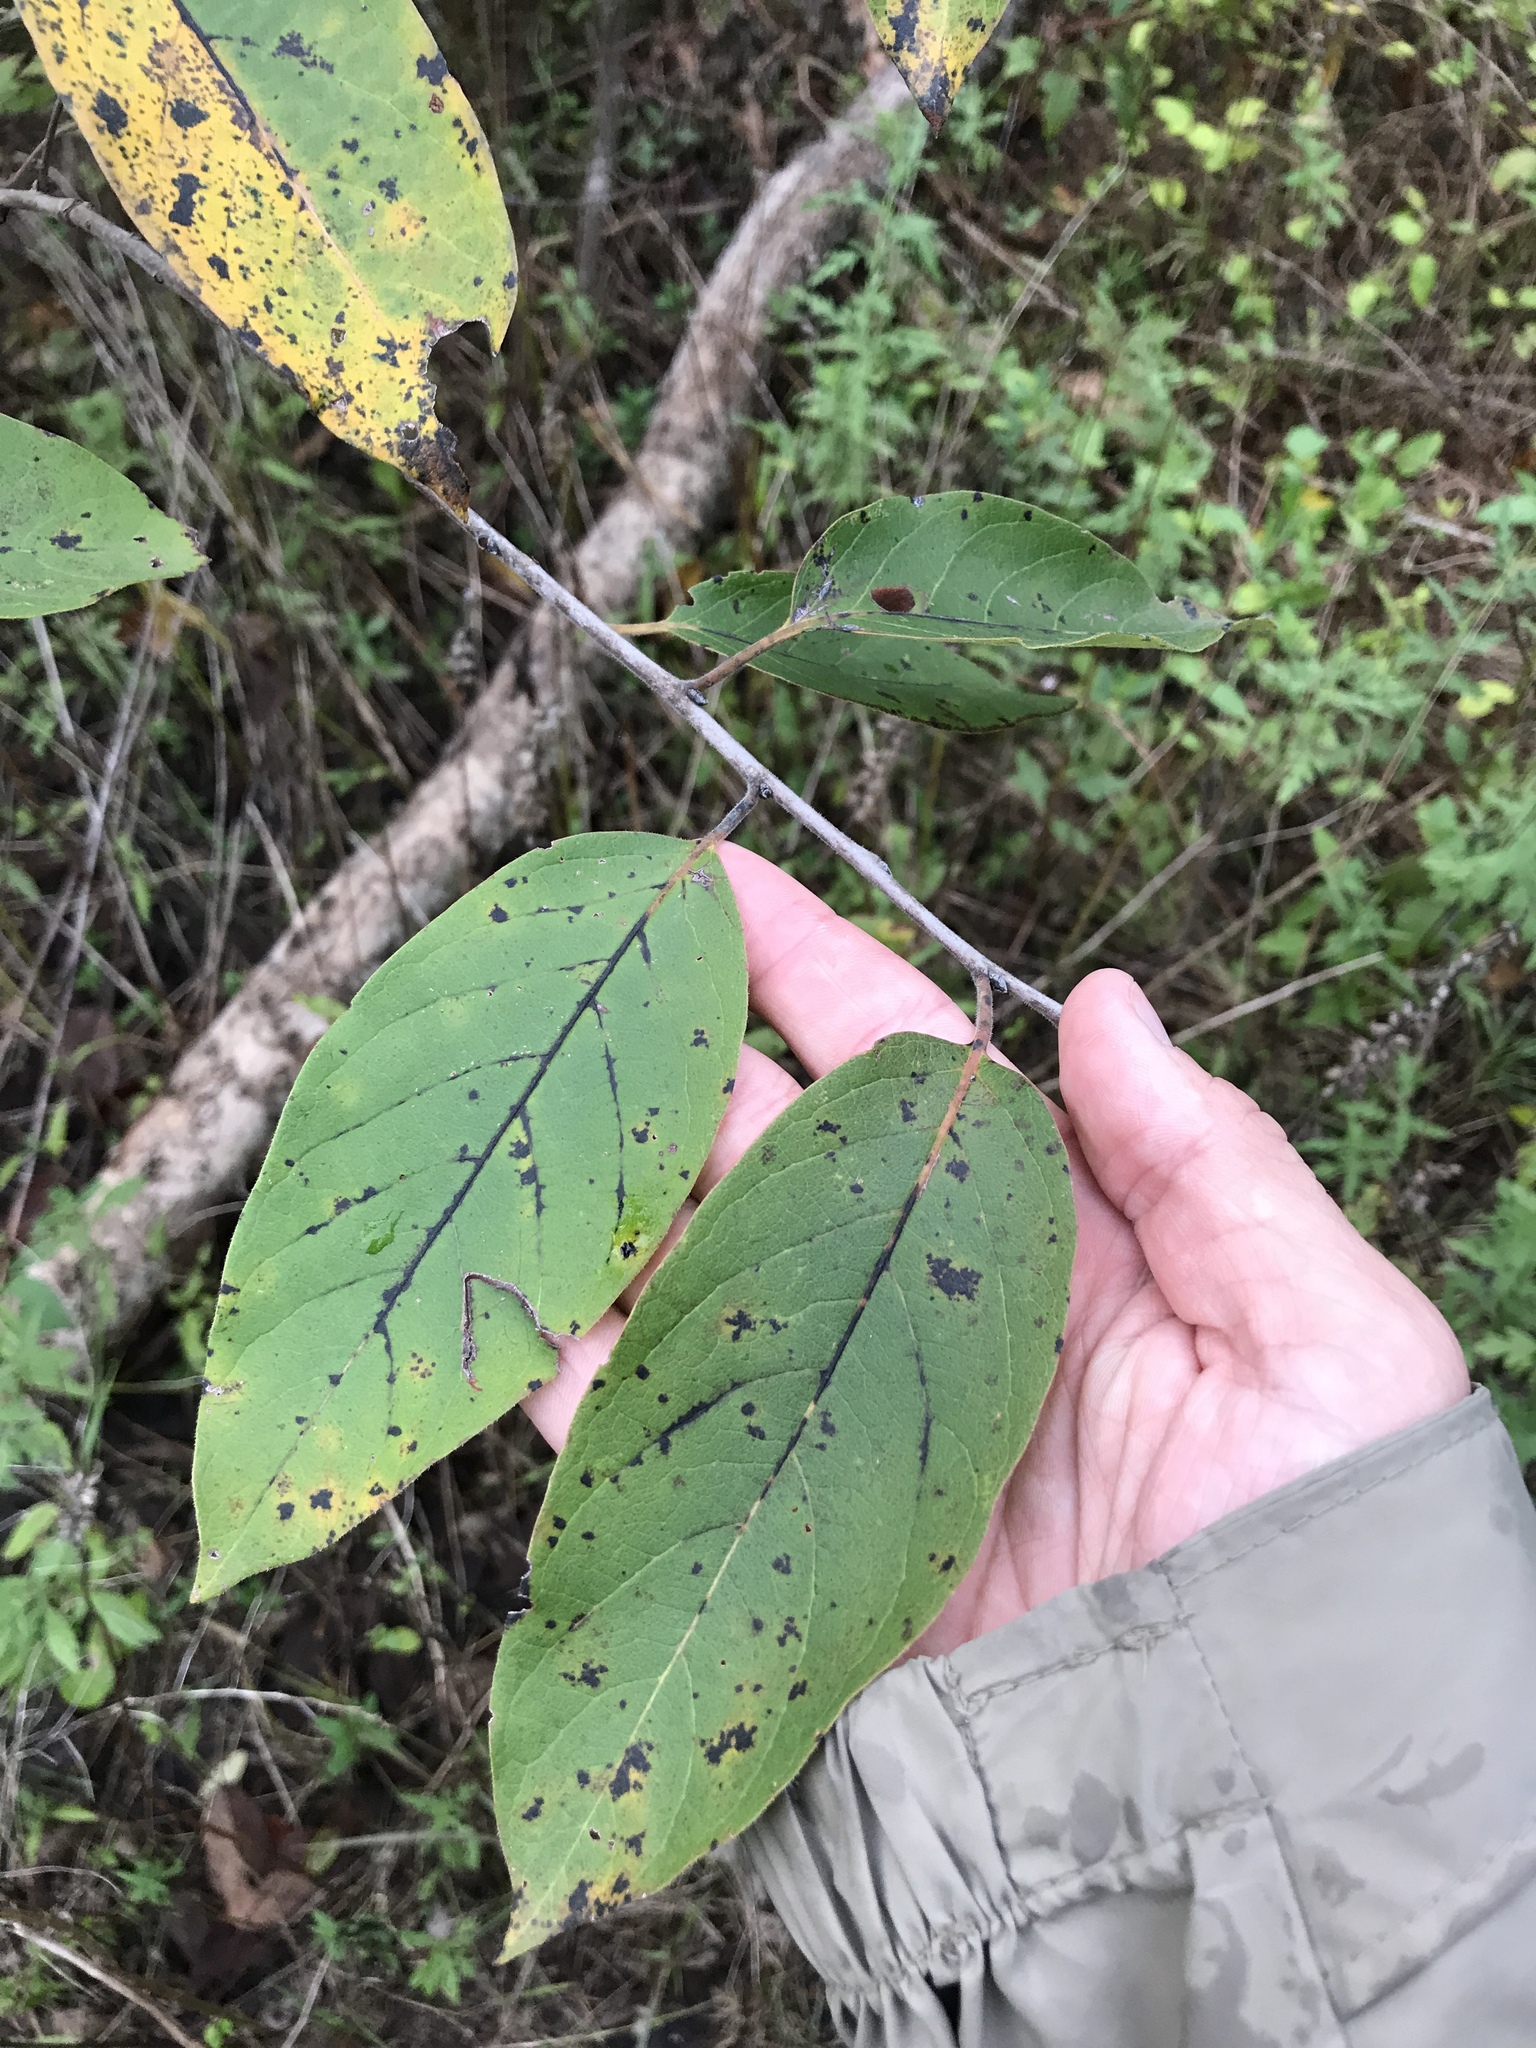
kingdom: Plantae
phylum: Tracheophyta
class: Magnoliopsida
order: Ericales
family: Ebenaceae
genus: Diospyros
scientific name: Diospyros virginiana
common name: Persimmon
